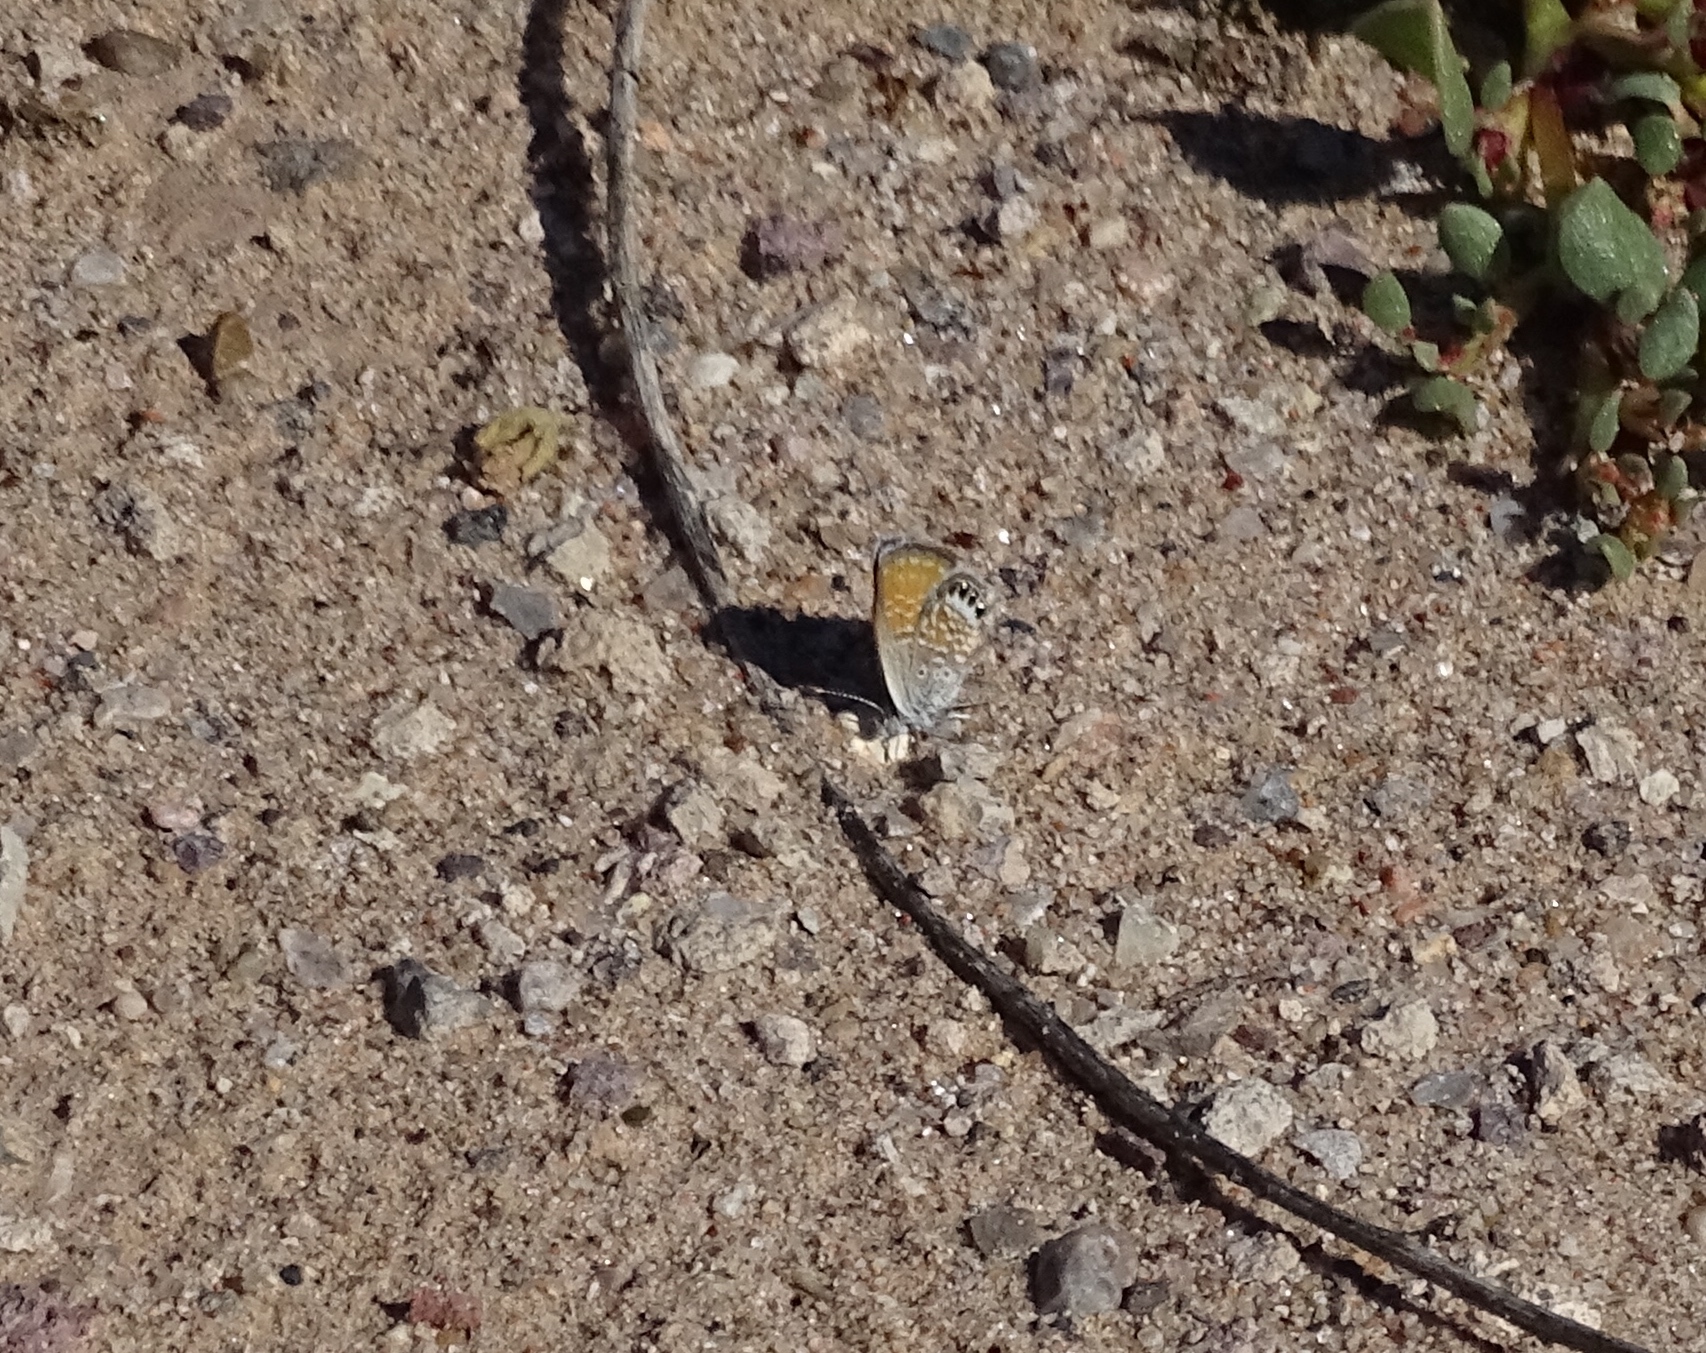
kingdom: Animalia
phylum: Arthropoda
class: Insecta
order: Lepidoptera
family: Lycaenidae
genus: Brephidium
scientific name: Brephidium exilis
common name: Pygmy blue
